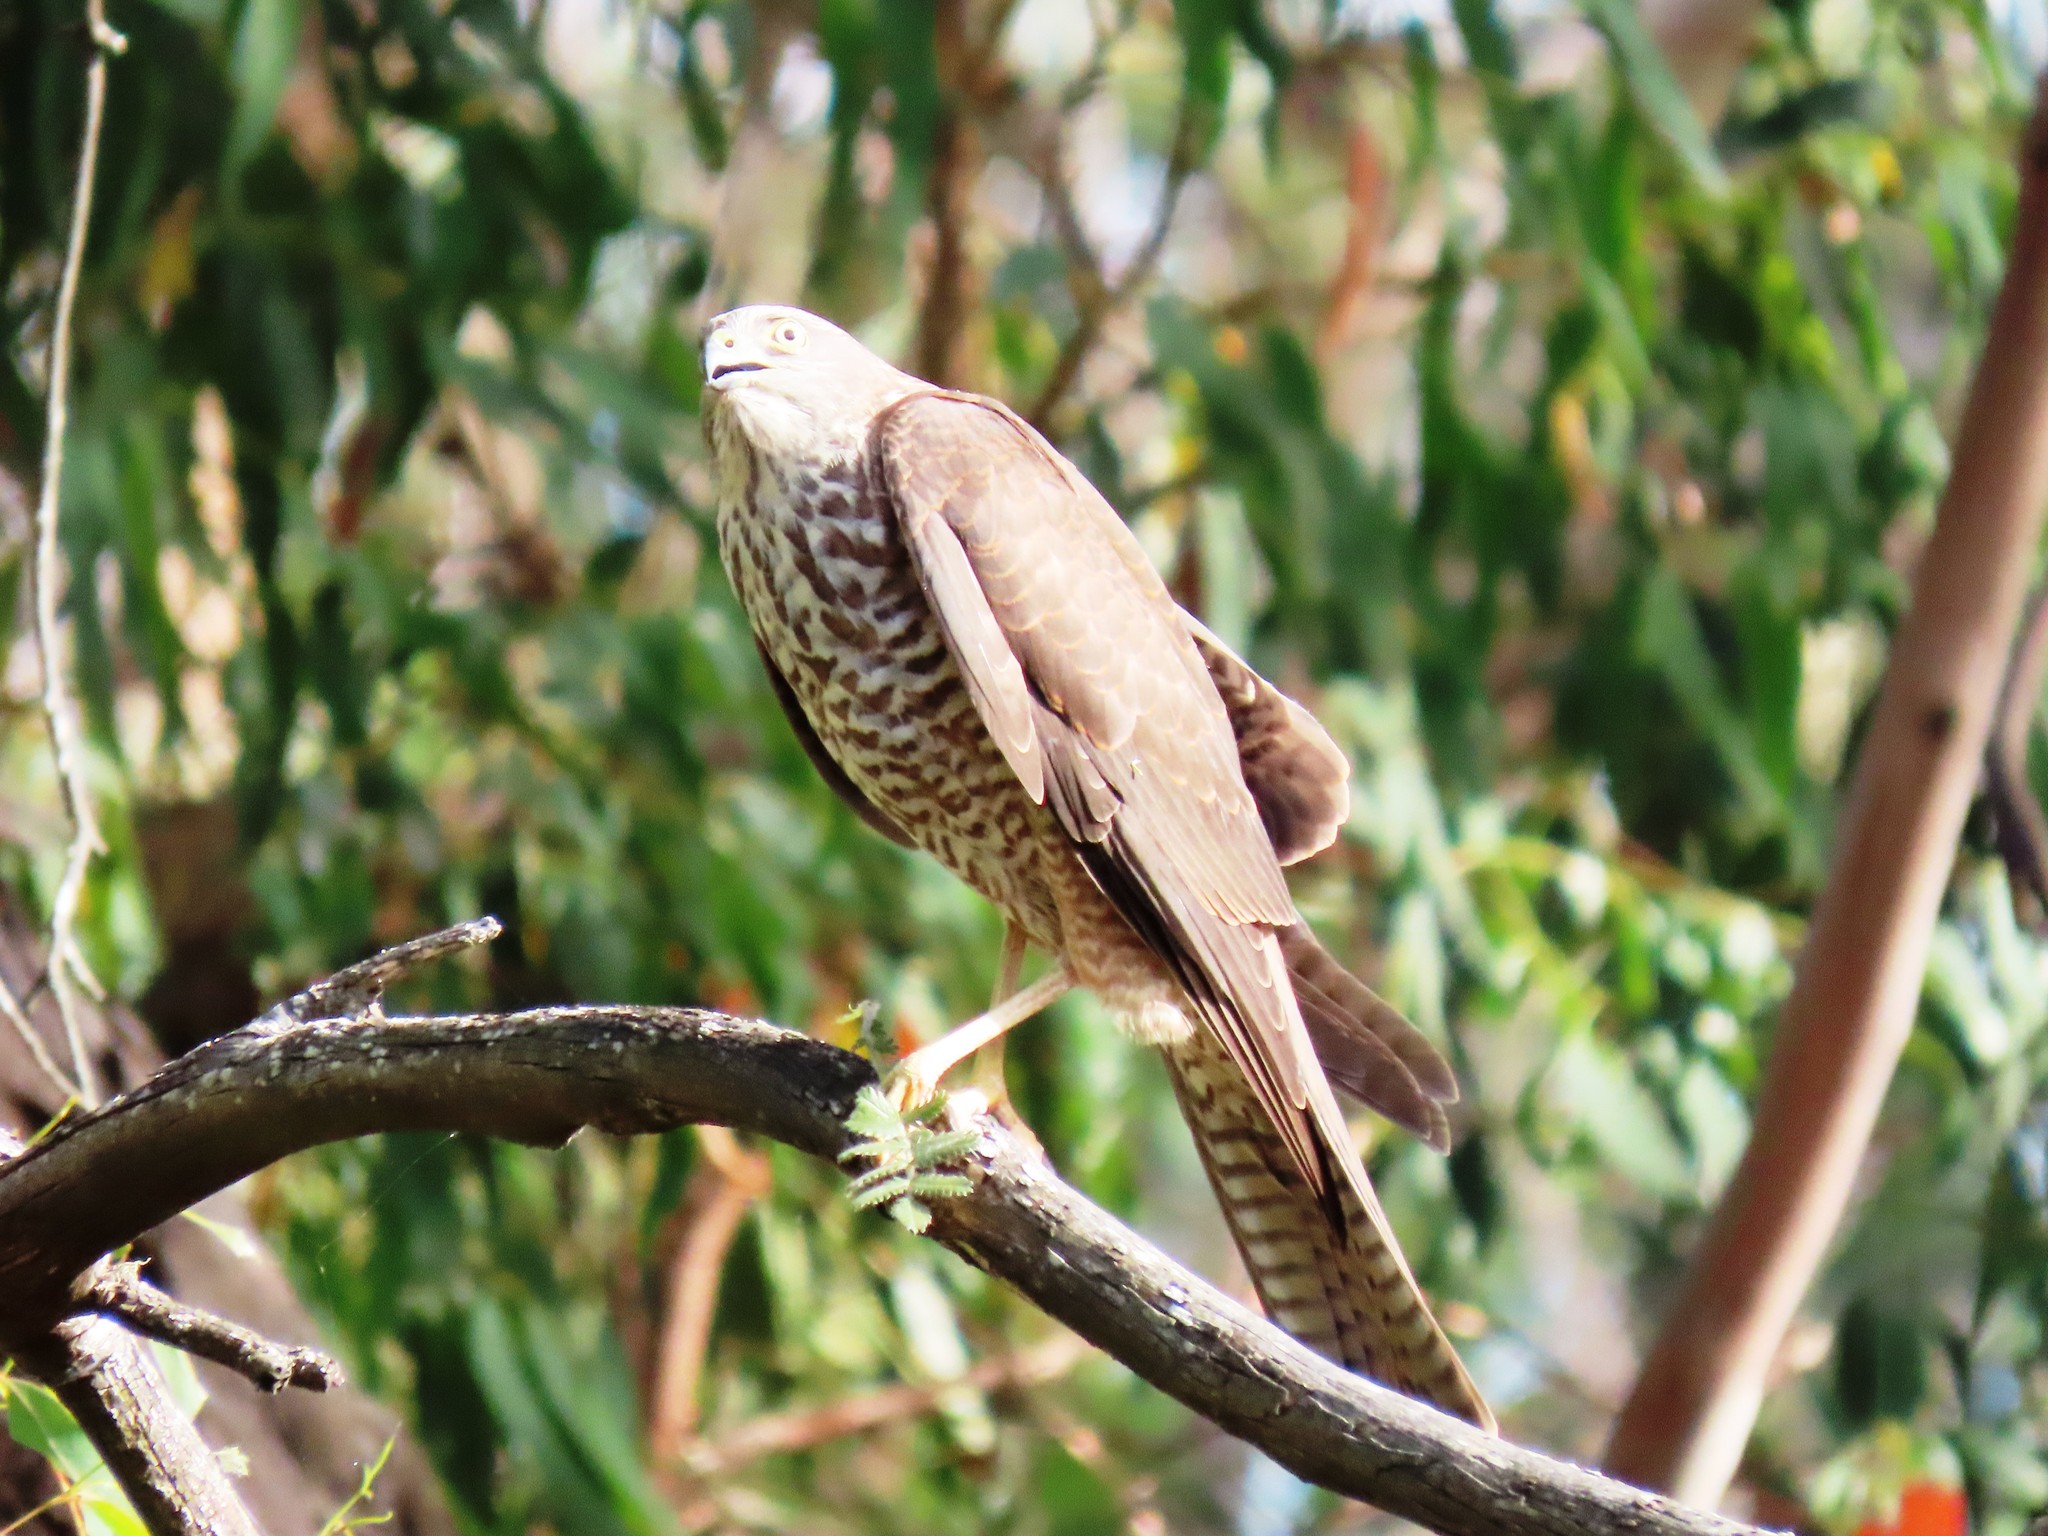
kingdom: Animalia
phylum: Chordata
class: Aves
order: Accipitriformes
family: Accipitridae
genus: Accipiter
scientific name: Accipiter cirrocephalus
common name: Collared sparrowhawk
